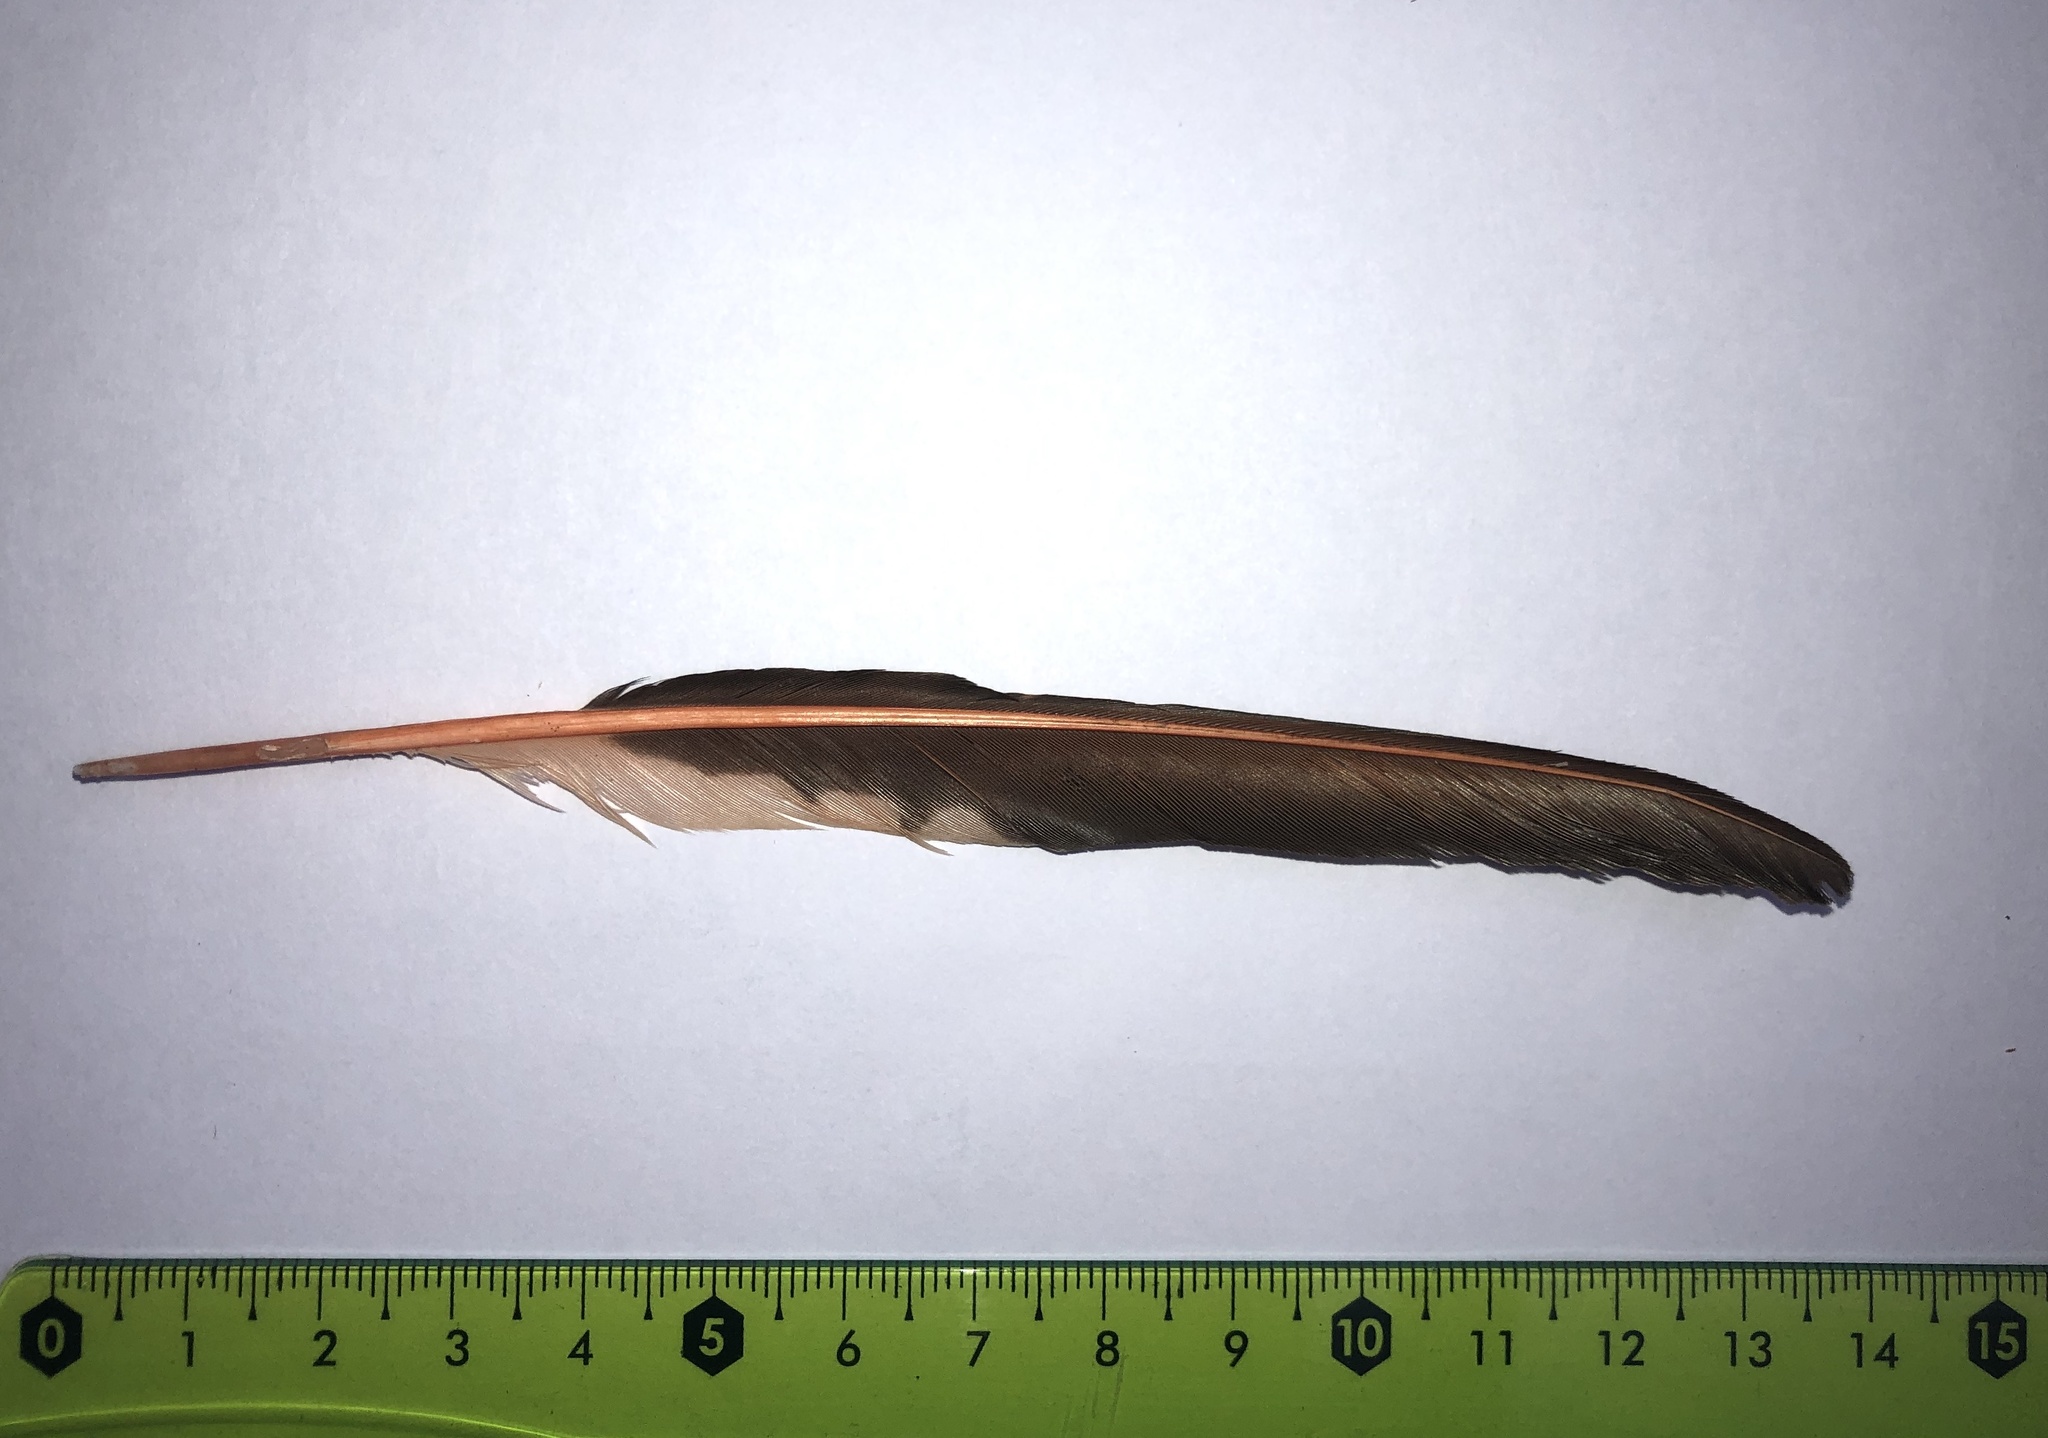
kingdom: Animalia
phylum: Chordata
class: Aves
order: Piciformes
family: Picidae
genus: Colaptes
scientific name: Colaptes auratus
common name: Northern flicker
